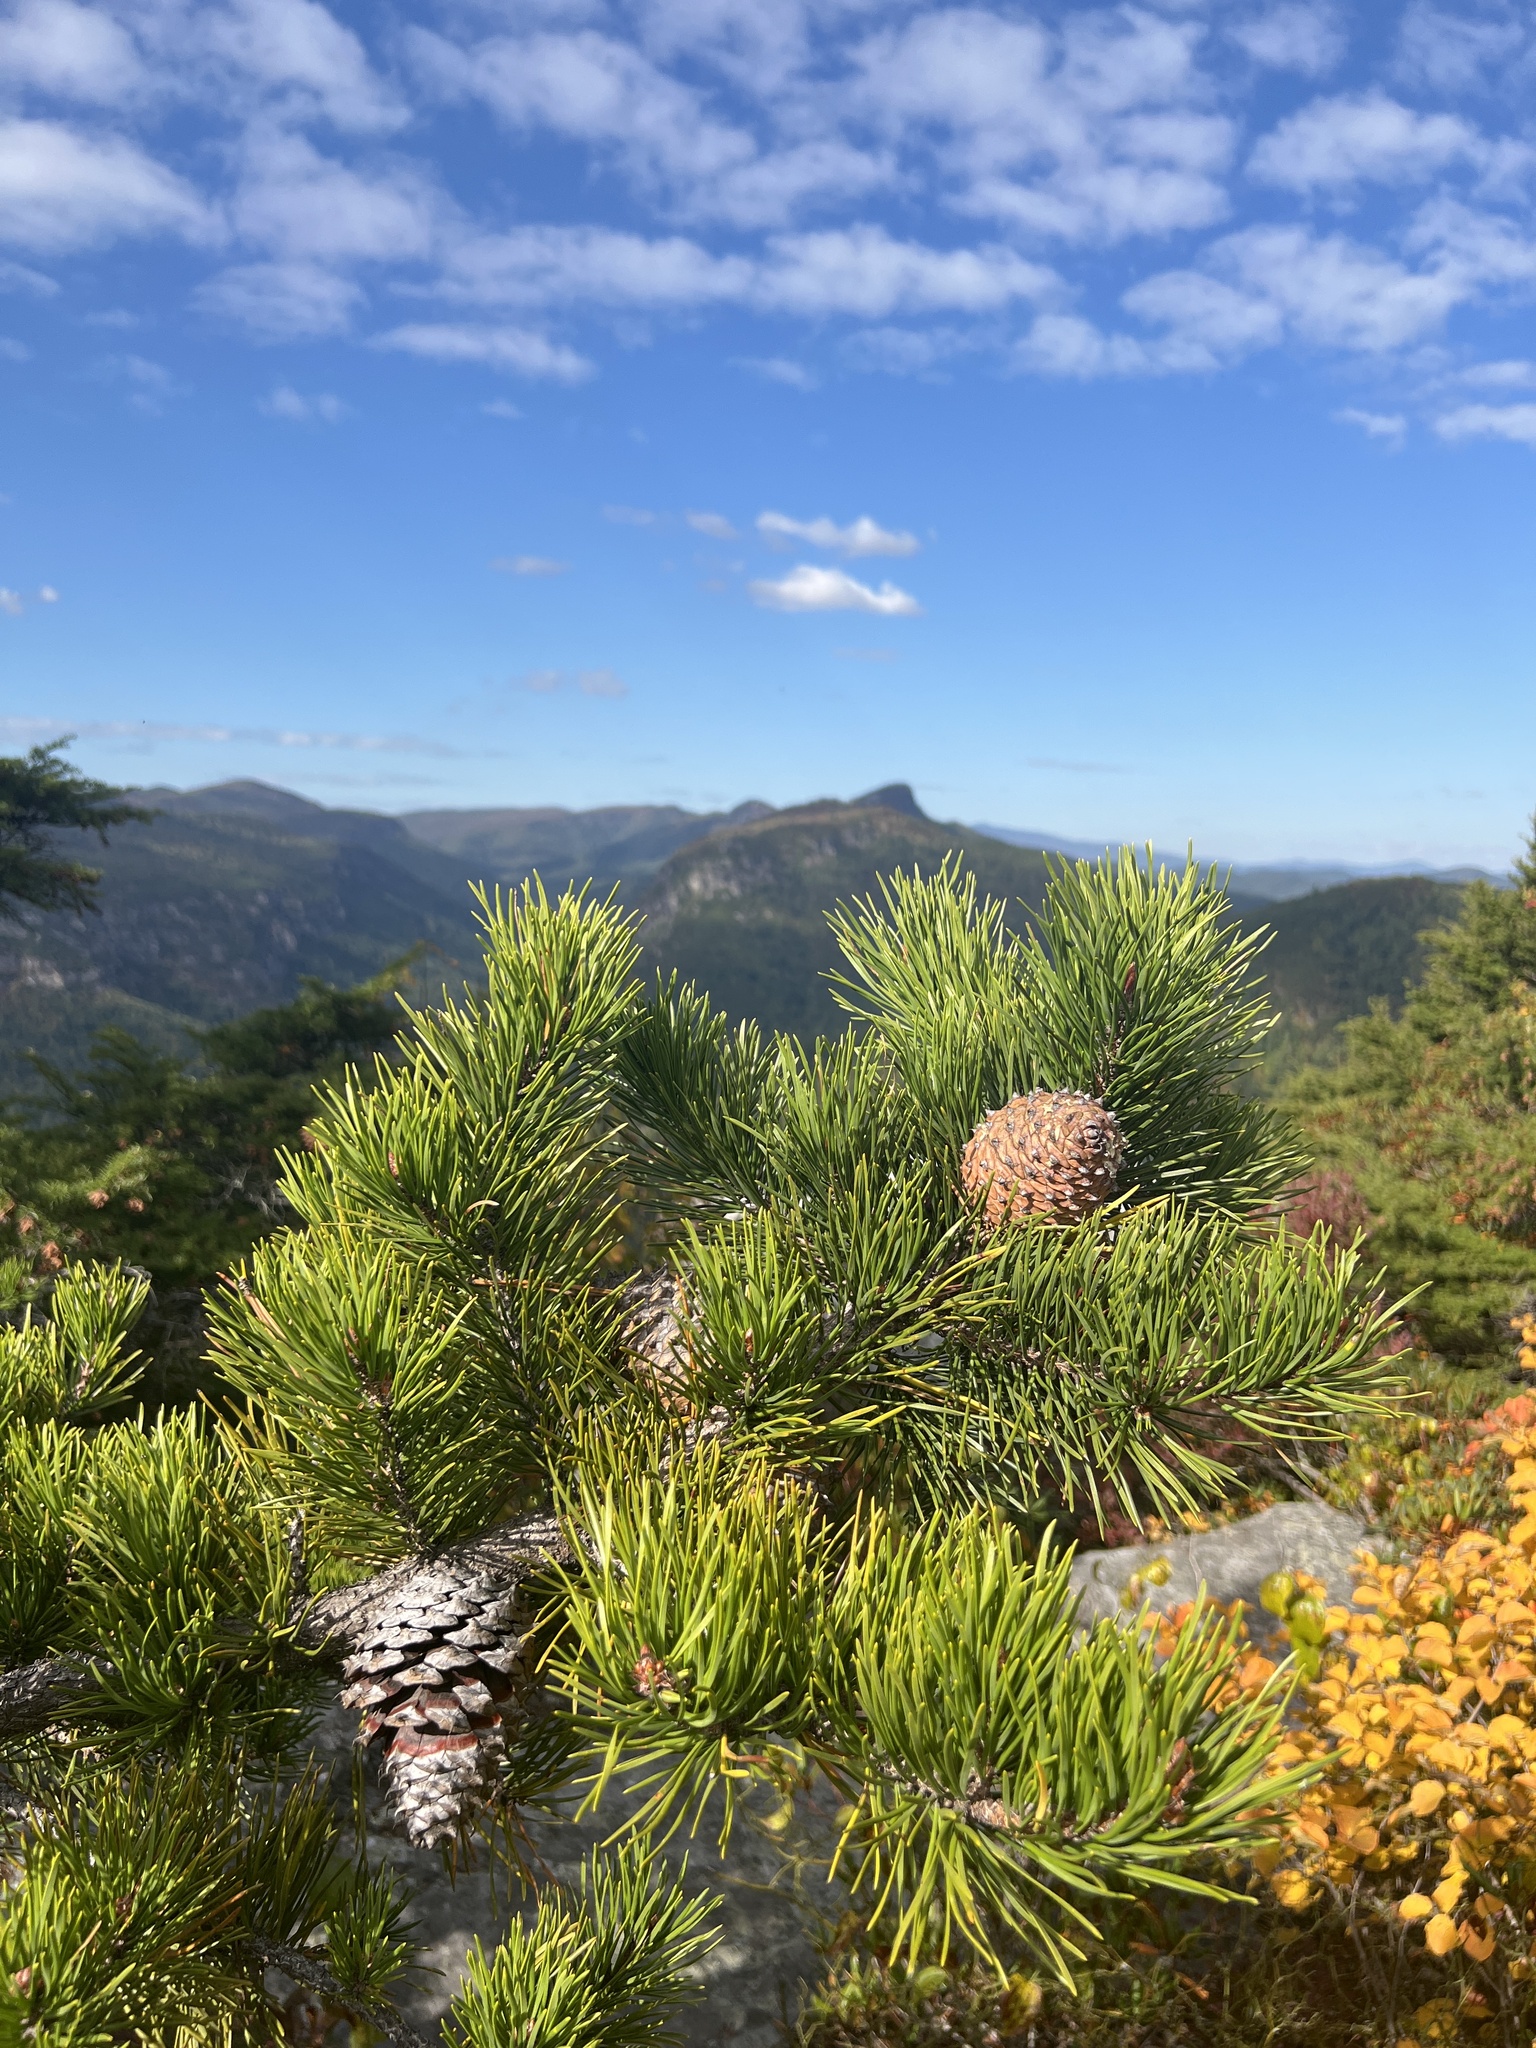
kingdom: Plantae
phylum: Tracheophyta
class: Pinopsida
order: Pinales
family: Pinaceae
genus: Pinus
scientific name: Pinus pungens
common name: Hickory pine
